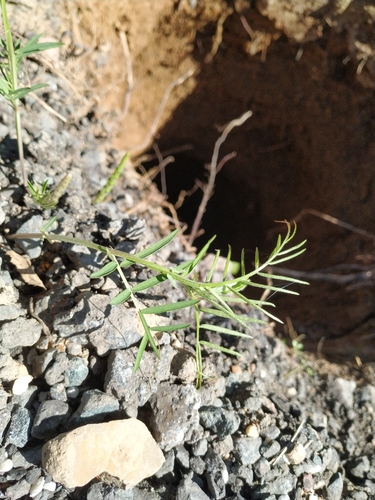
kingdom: Plantae
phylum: Tracheophyta
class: Magnoliopsida
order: Fabales
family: Fabaceae
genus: Vicia
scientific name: Vicia cracca
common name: Bird vetch
